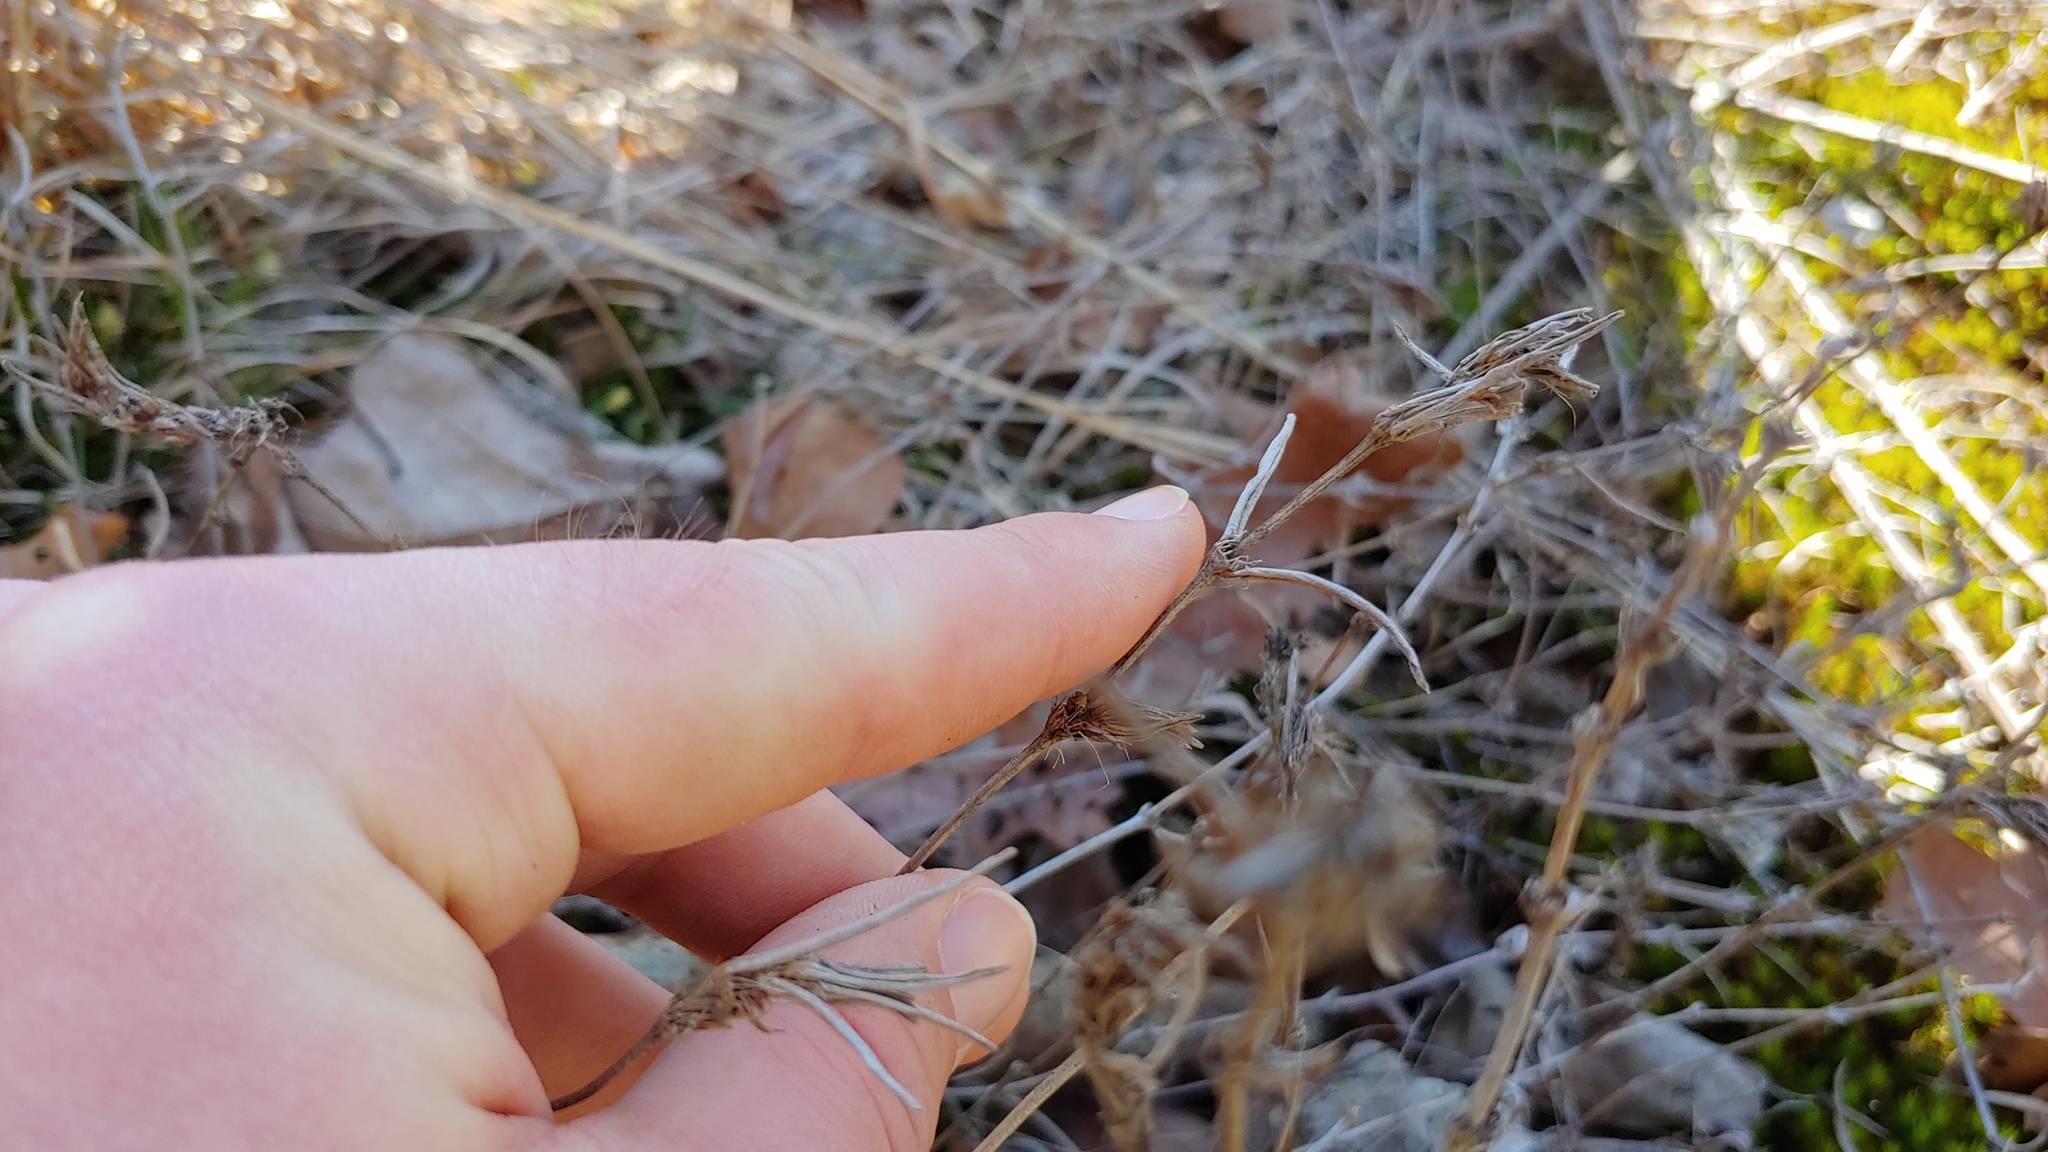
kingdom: Plantae
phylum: Tracheophyta
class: Magnoliopsida
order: Gentianales
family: Rubiaceae
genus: Hexasepalum
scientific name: Hexasepalum teres
